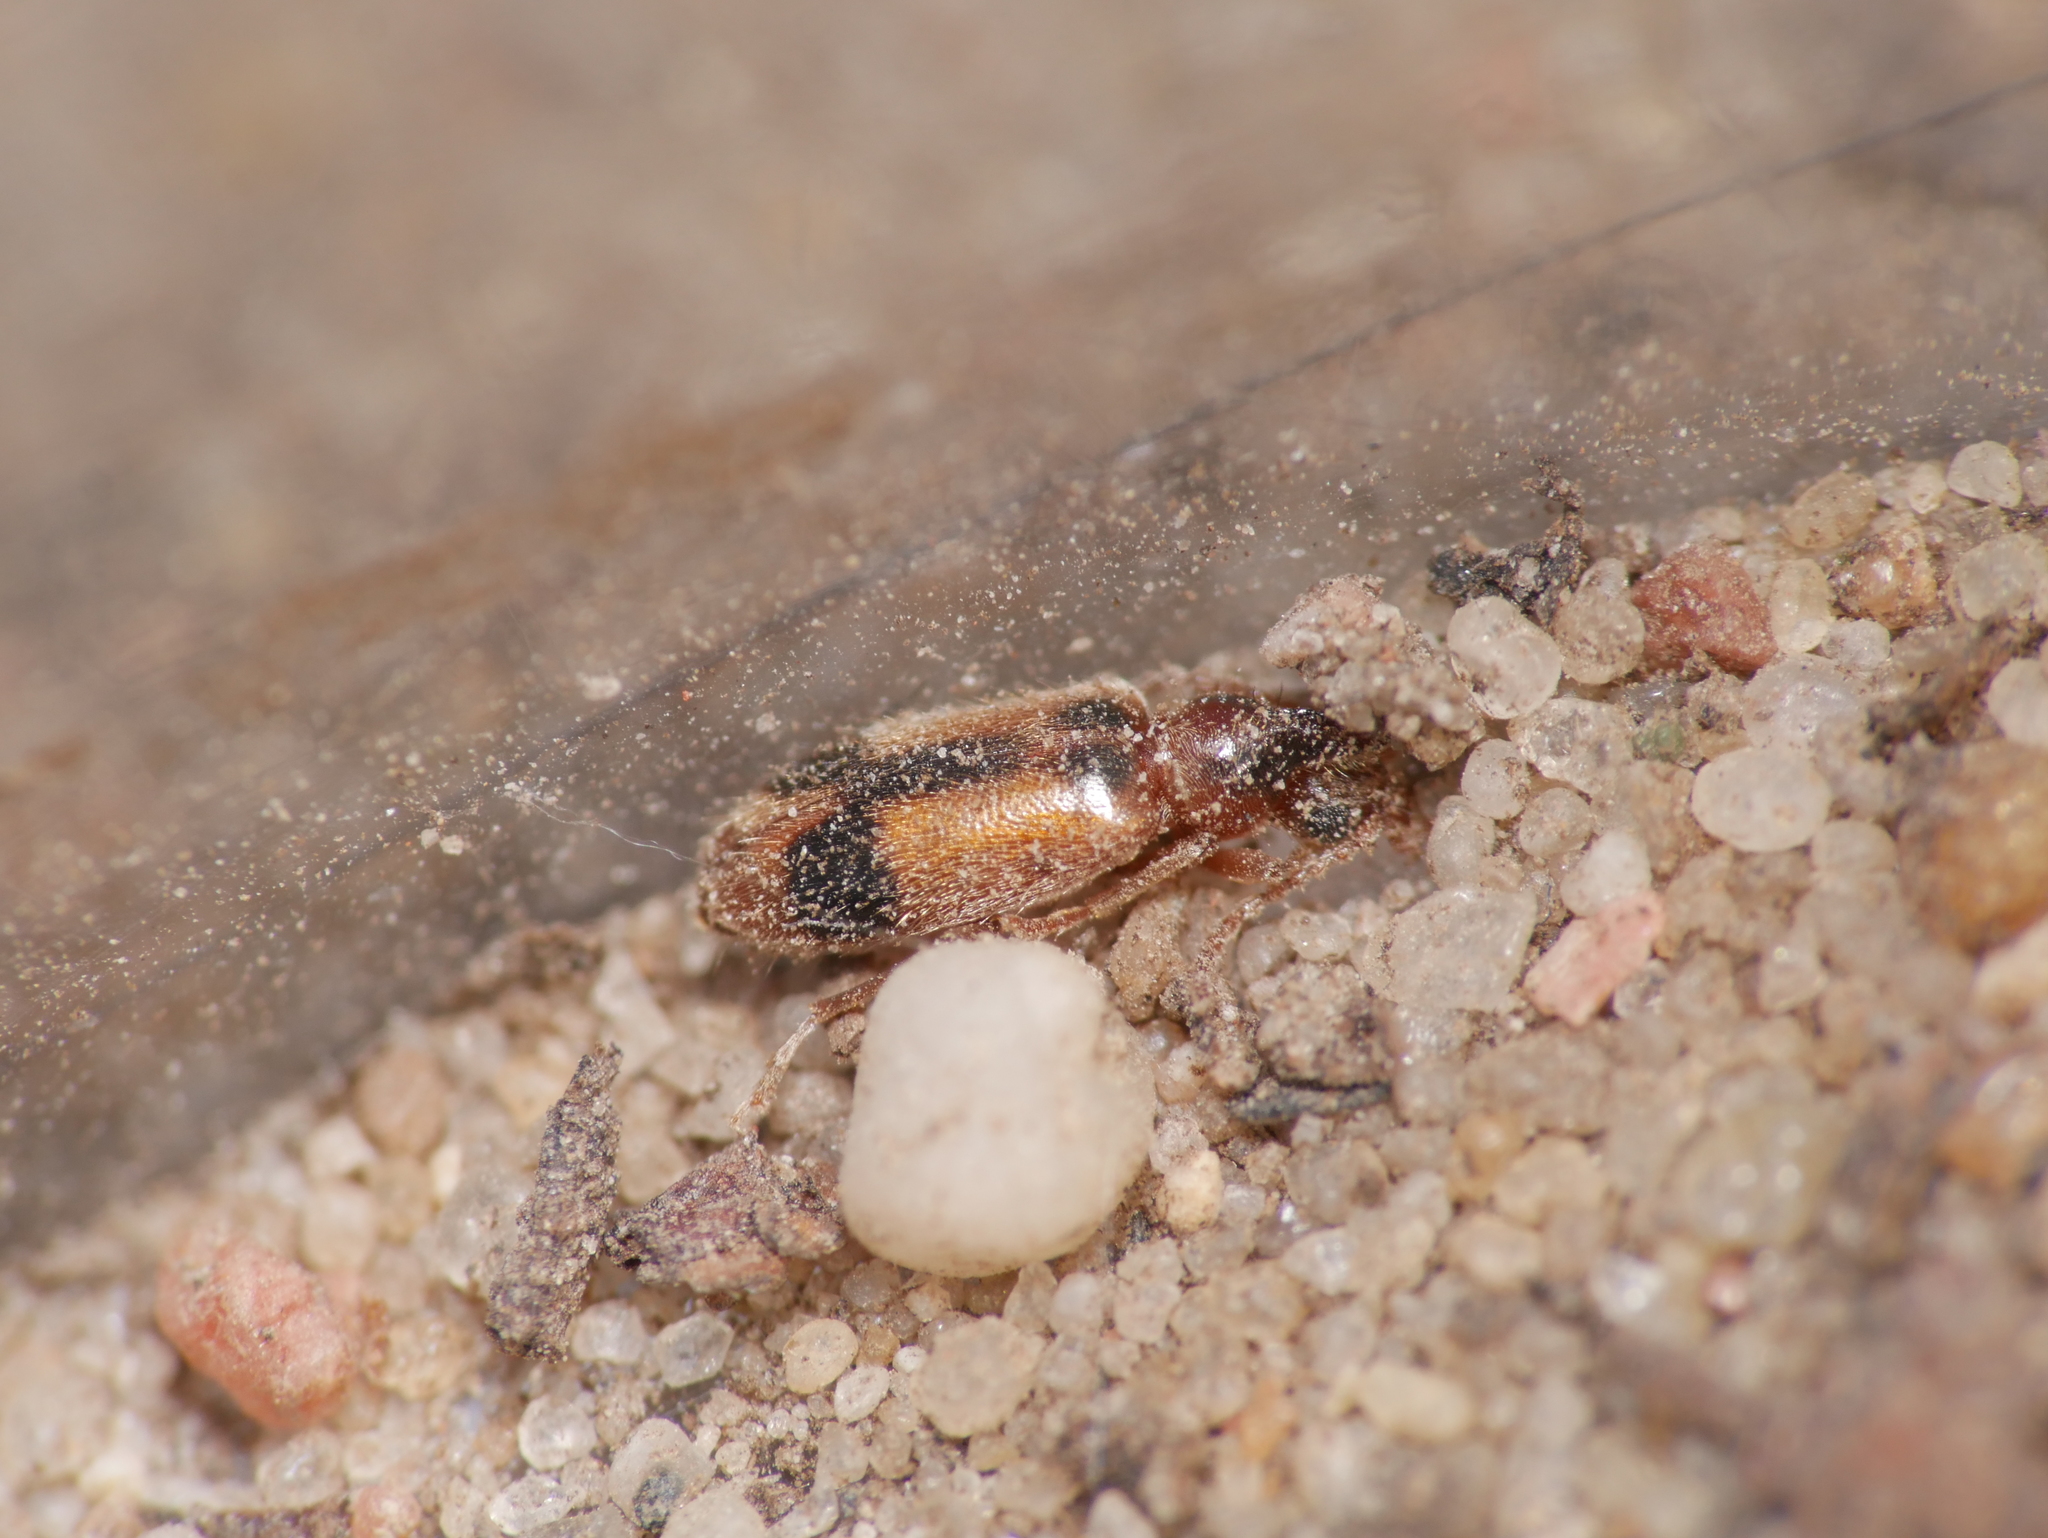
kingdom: Animalia
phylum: Arthropoda
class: Insecta
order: Coleoptera
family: Anthicidae
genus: Notoxus
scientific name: Notoxus monoceros
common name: Monoceros beetle
